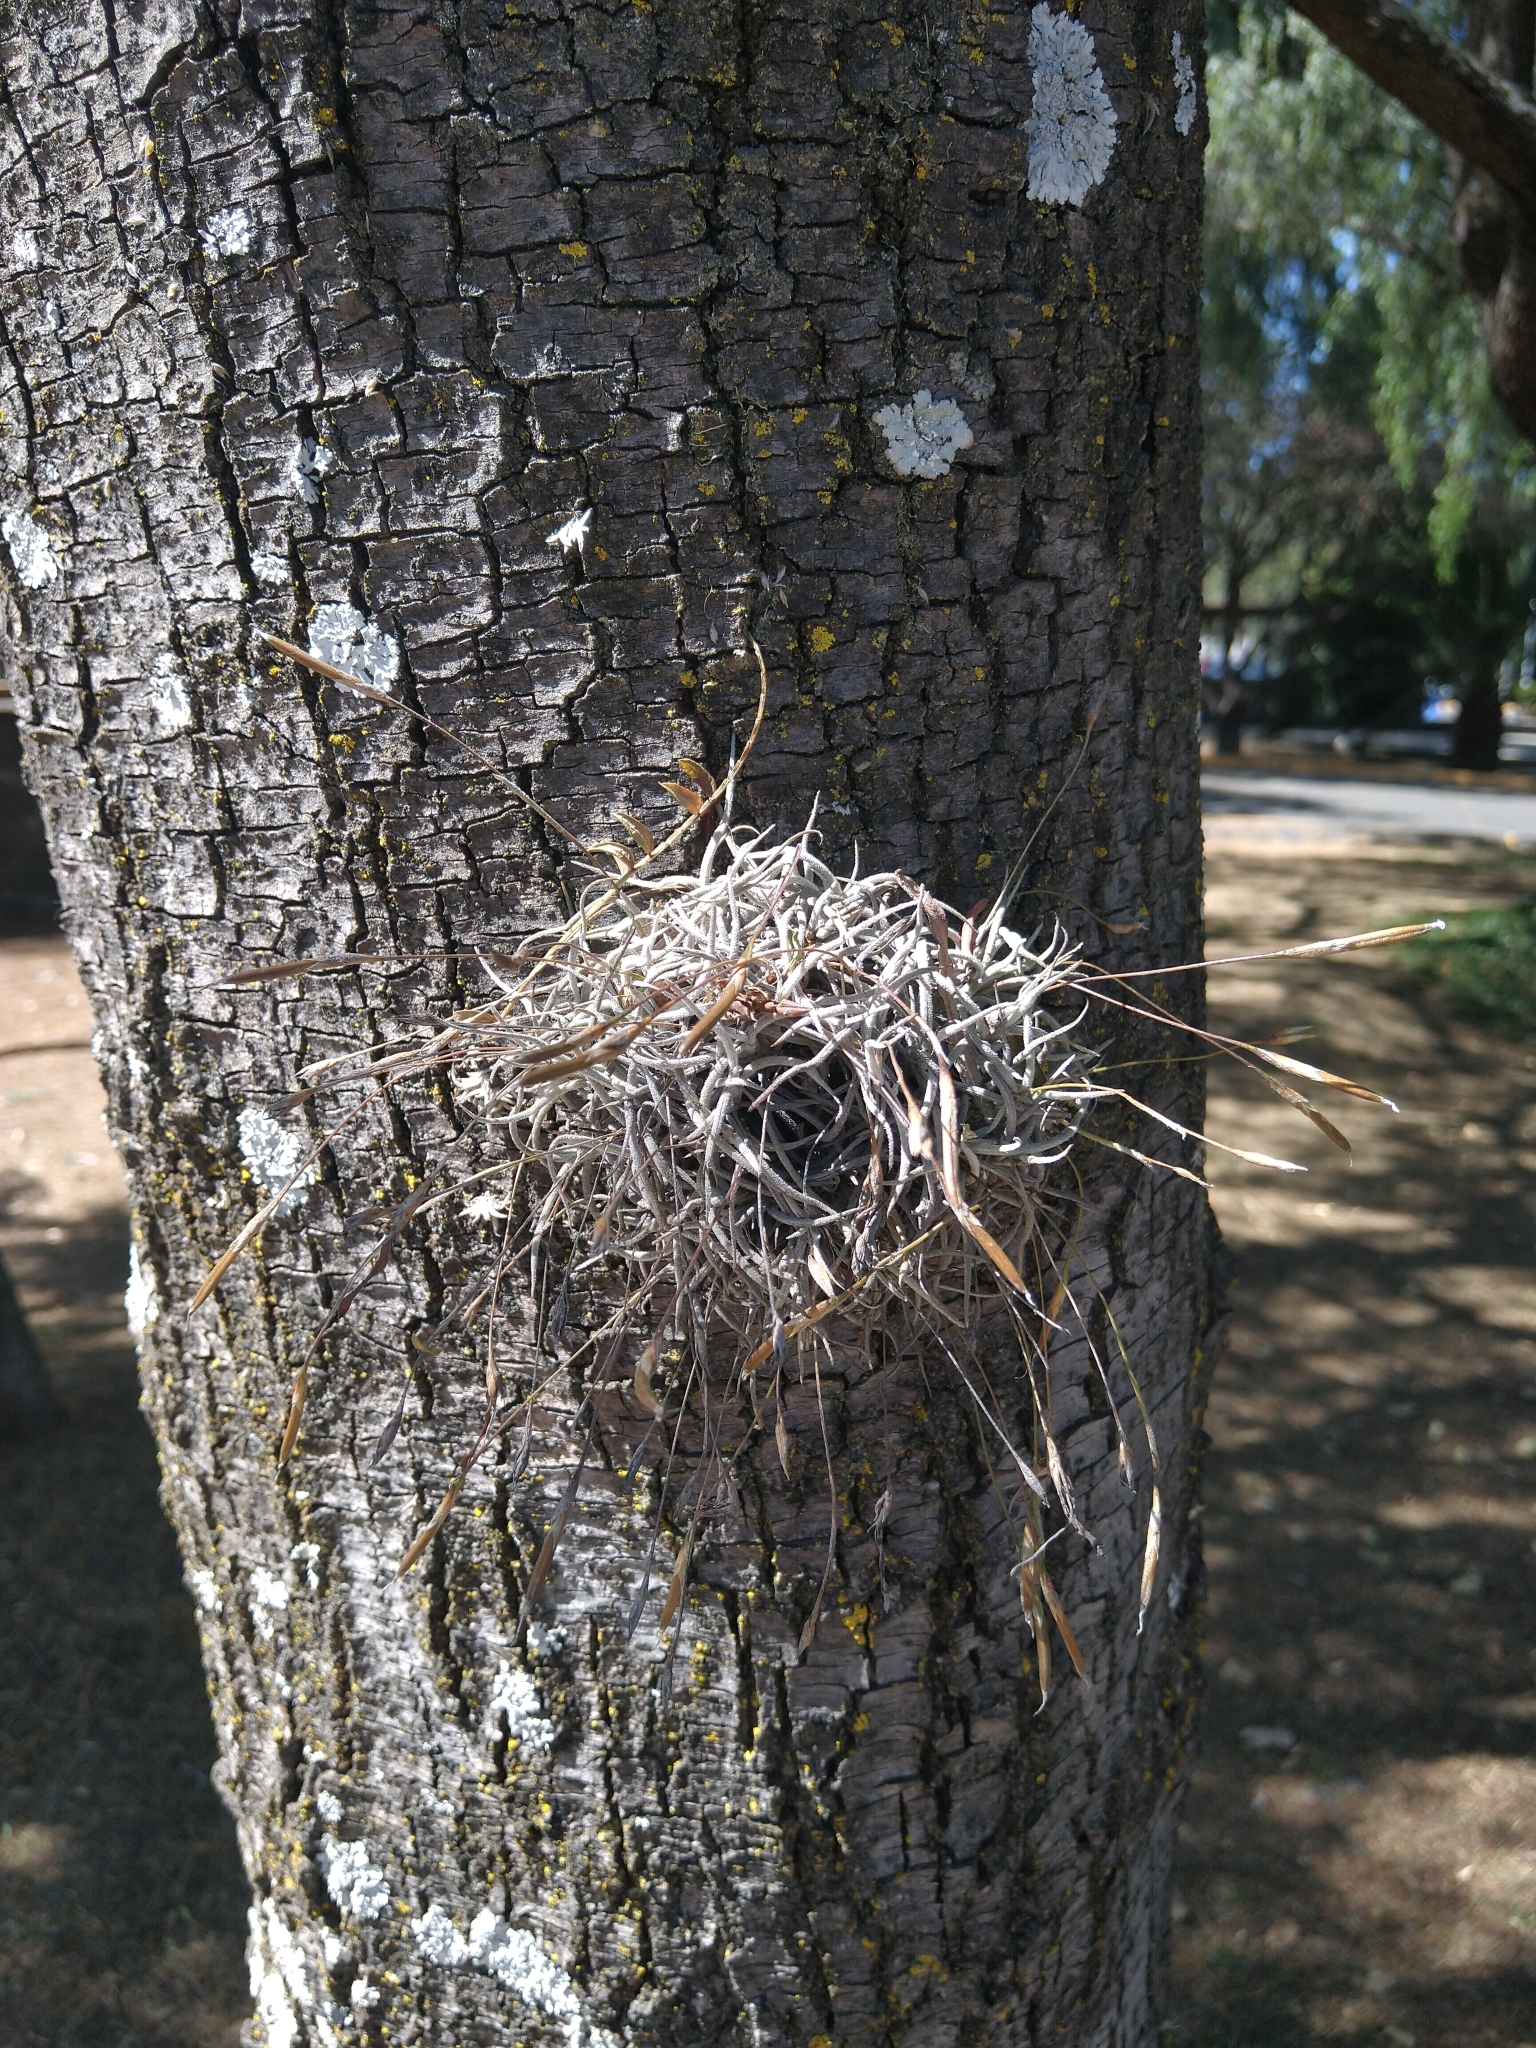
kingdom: Plantae
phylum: Tracheophyta
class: Liliopsida
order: Poales
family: Bromeliaceae
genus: Tillandsia
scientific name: Tillandsia recurvata
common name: Small ballmoss
